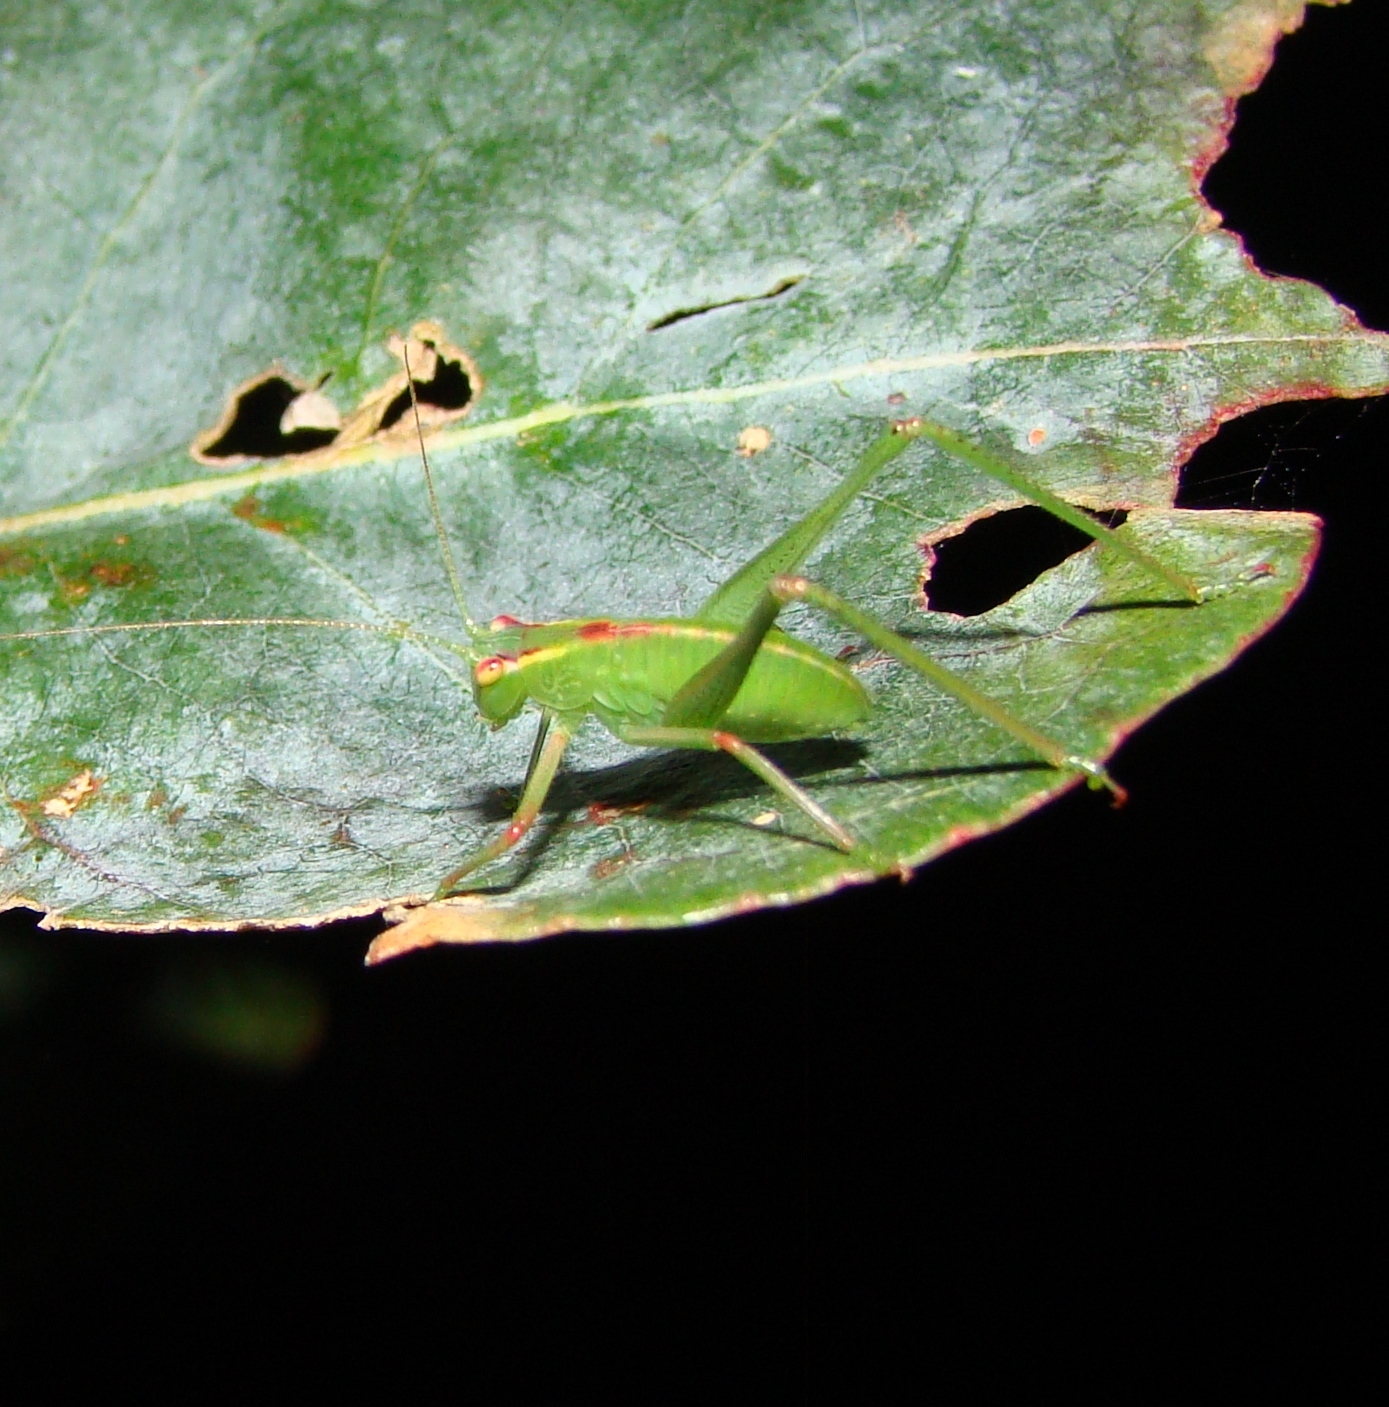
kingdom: Animalia
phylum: Arthropoda
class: Insecta
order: Orthoptera
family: Tettigoniidae
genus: Caedicia
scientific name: Caedicia simplex
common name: Common garden katydid
